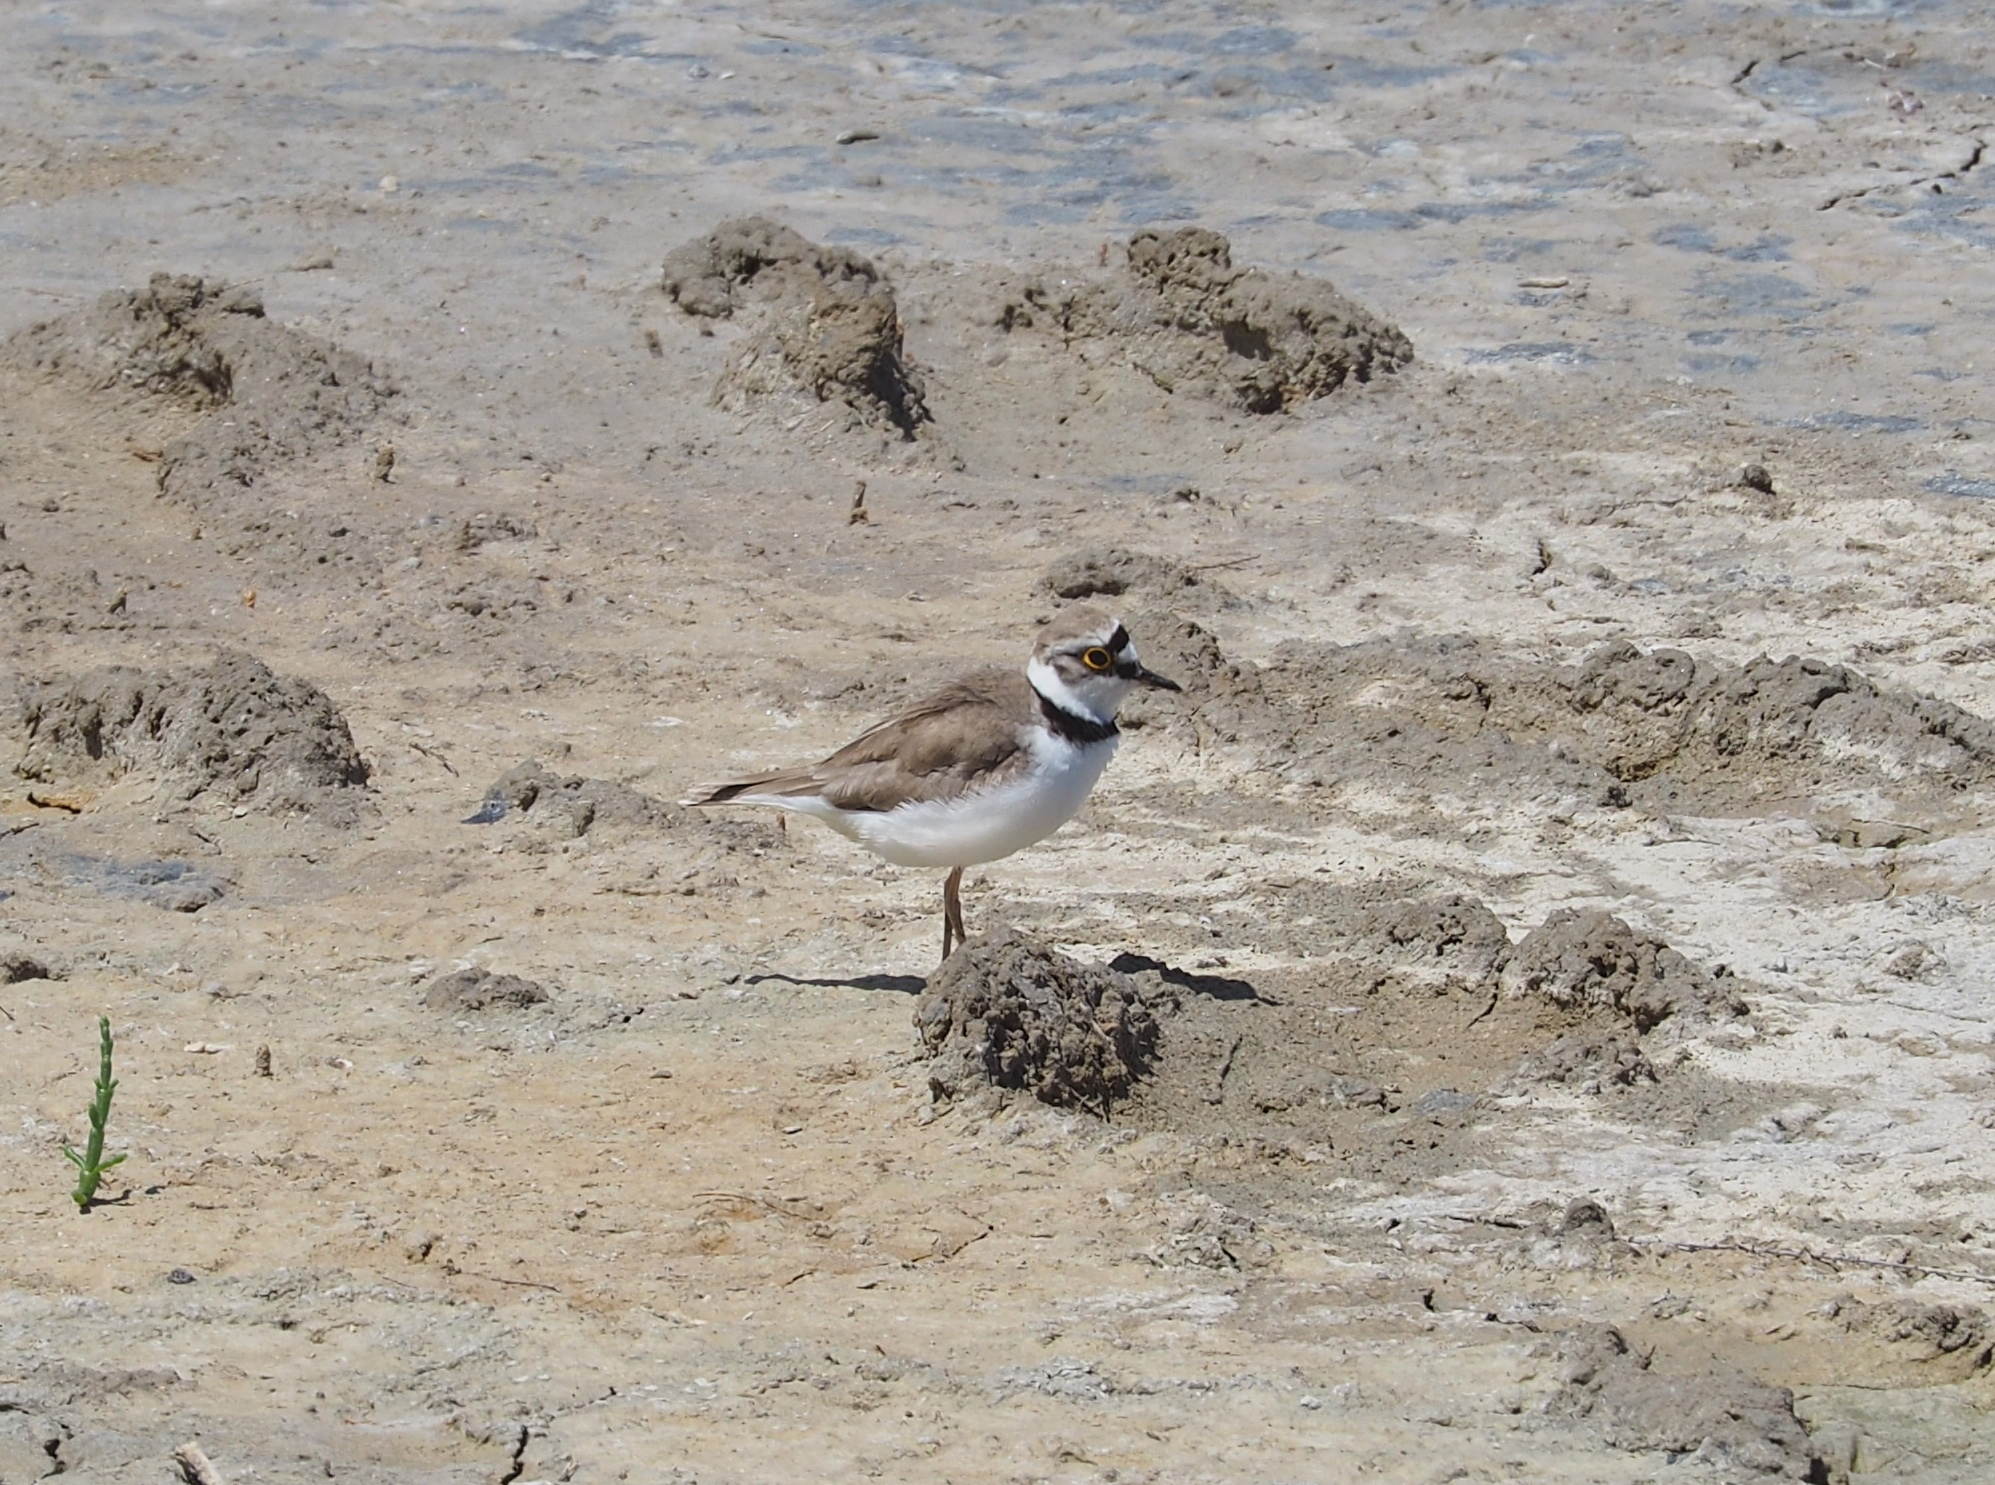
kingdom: Animalia
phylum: Chordata
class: Aves
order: Charadriiformes
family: Charadriidae
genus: Charadrius
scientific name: Charadrius dubius
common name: Little ringed plover
